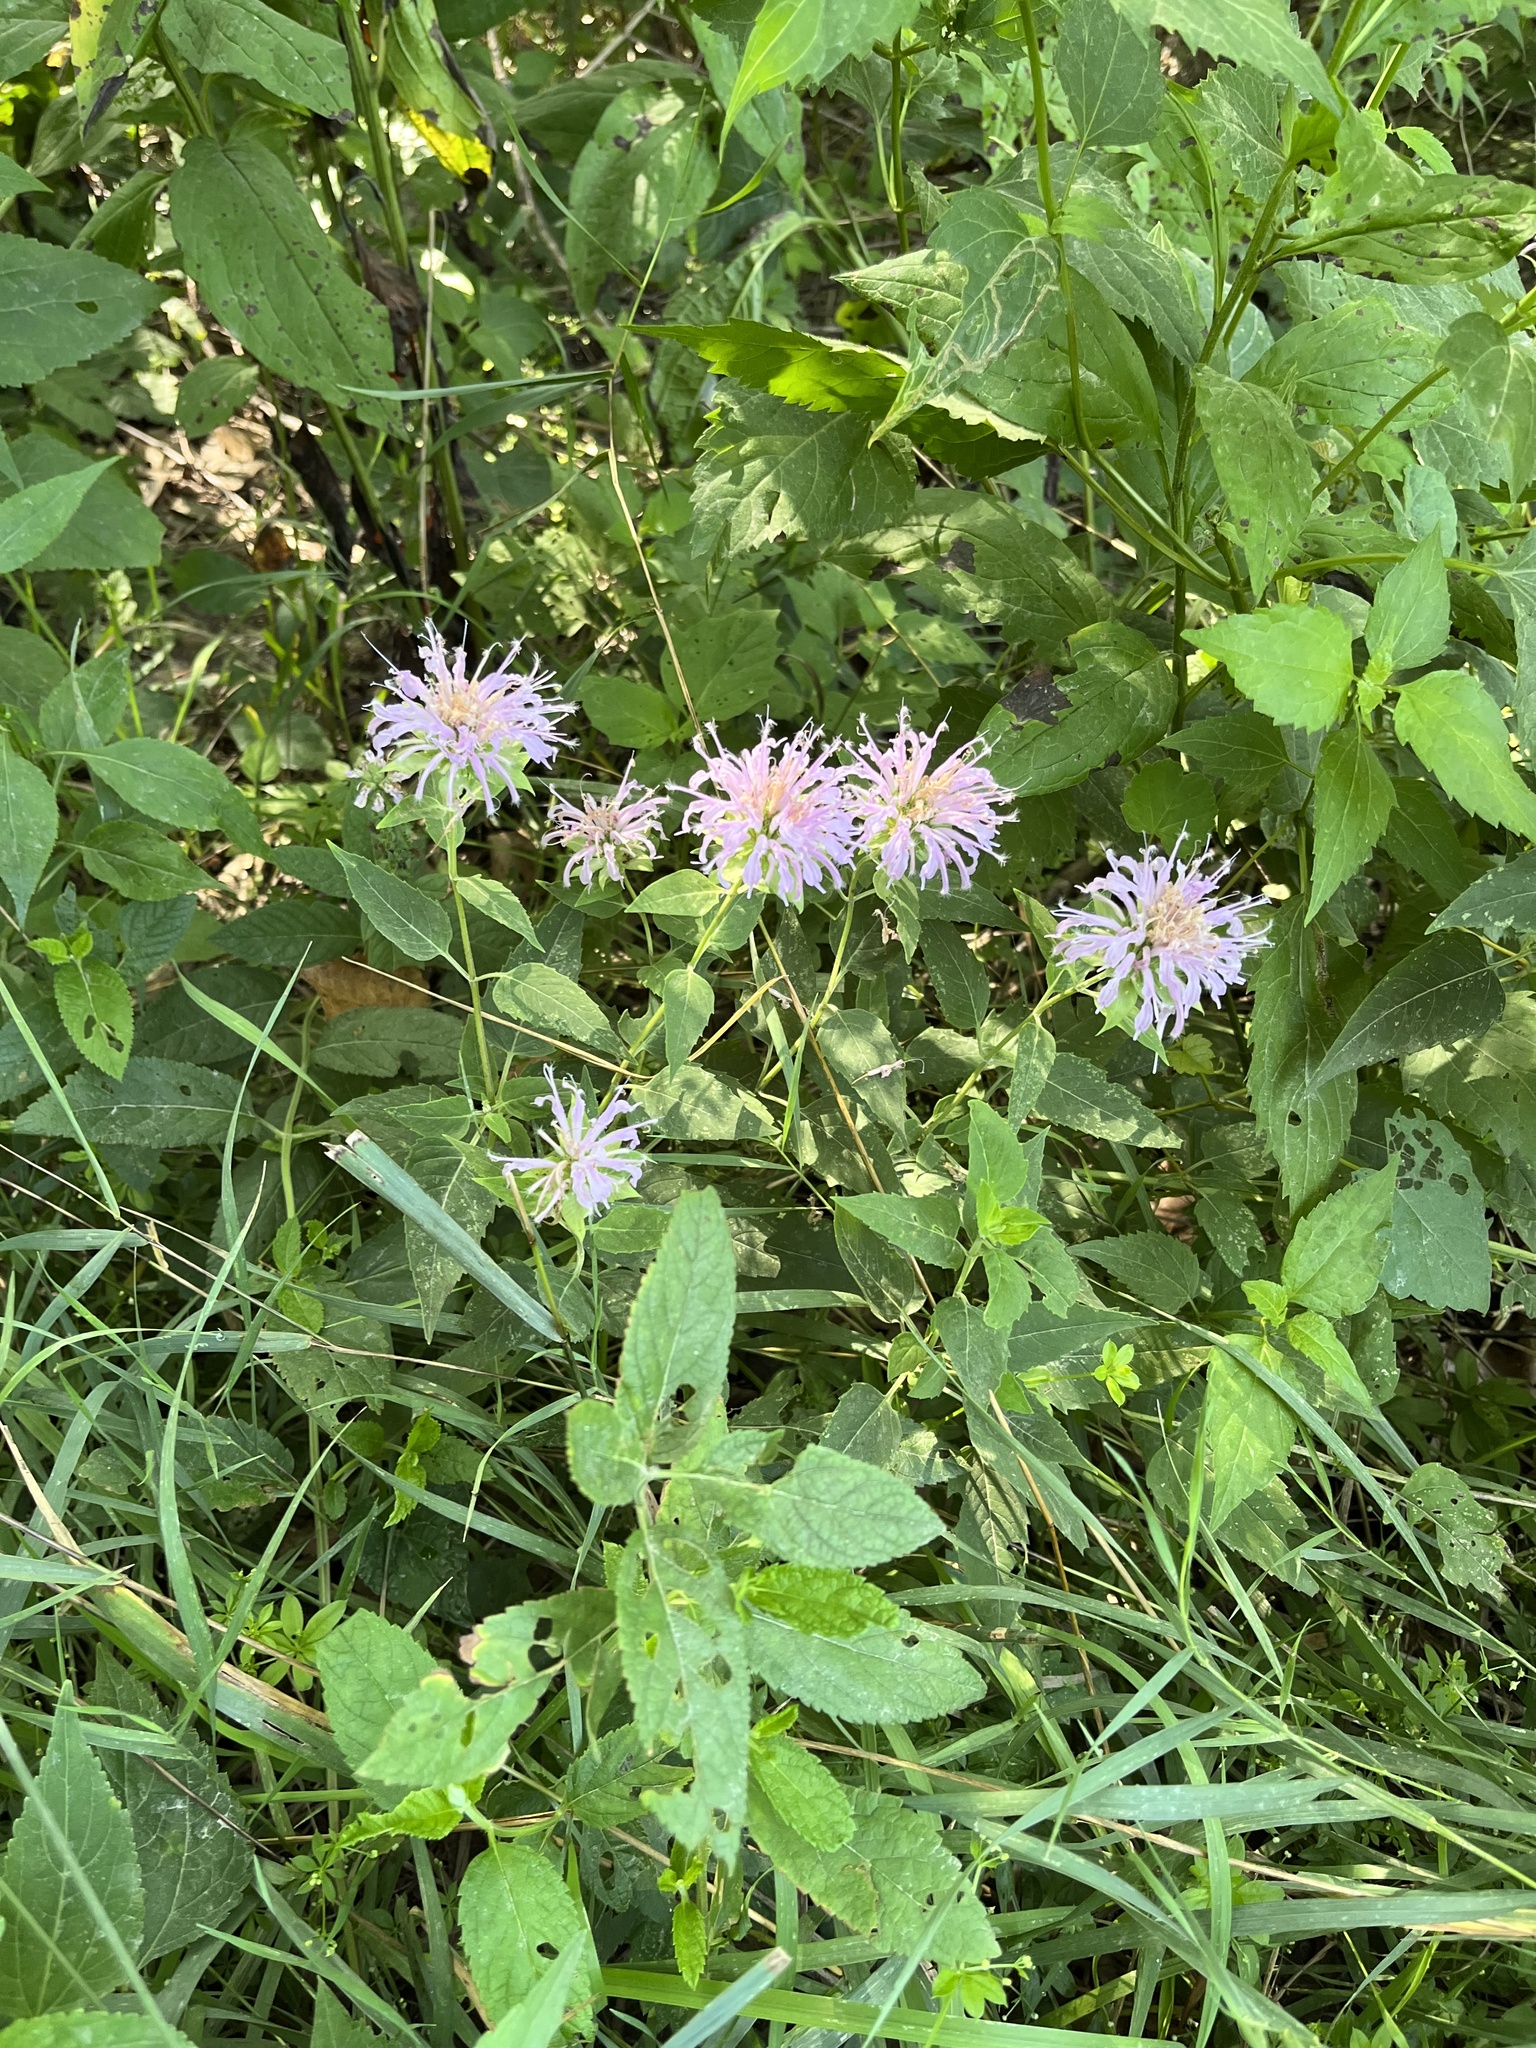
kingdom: Plantae
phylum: Tracheophyta
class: Magnoliopsida
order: Lamiales
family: Lamiaceae
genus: Monarda
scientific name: Monarda fistulosa
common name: Purple beebalm
